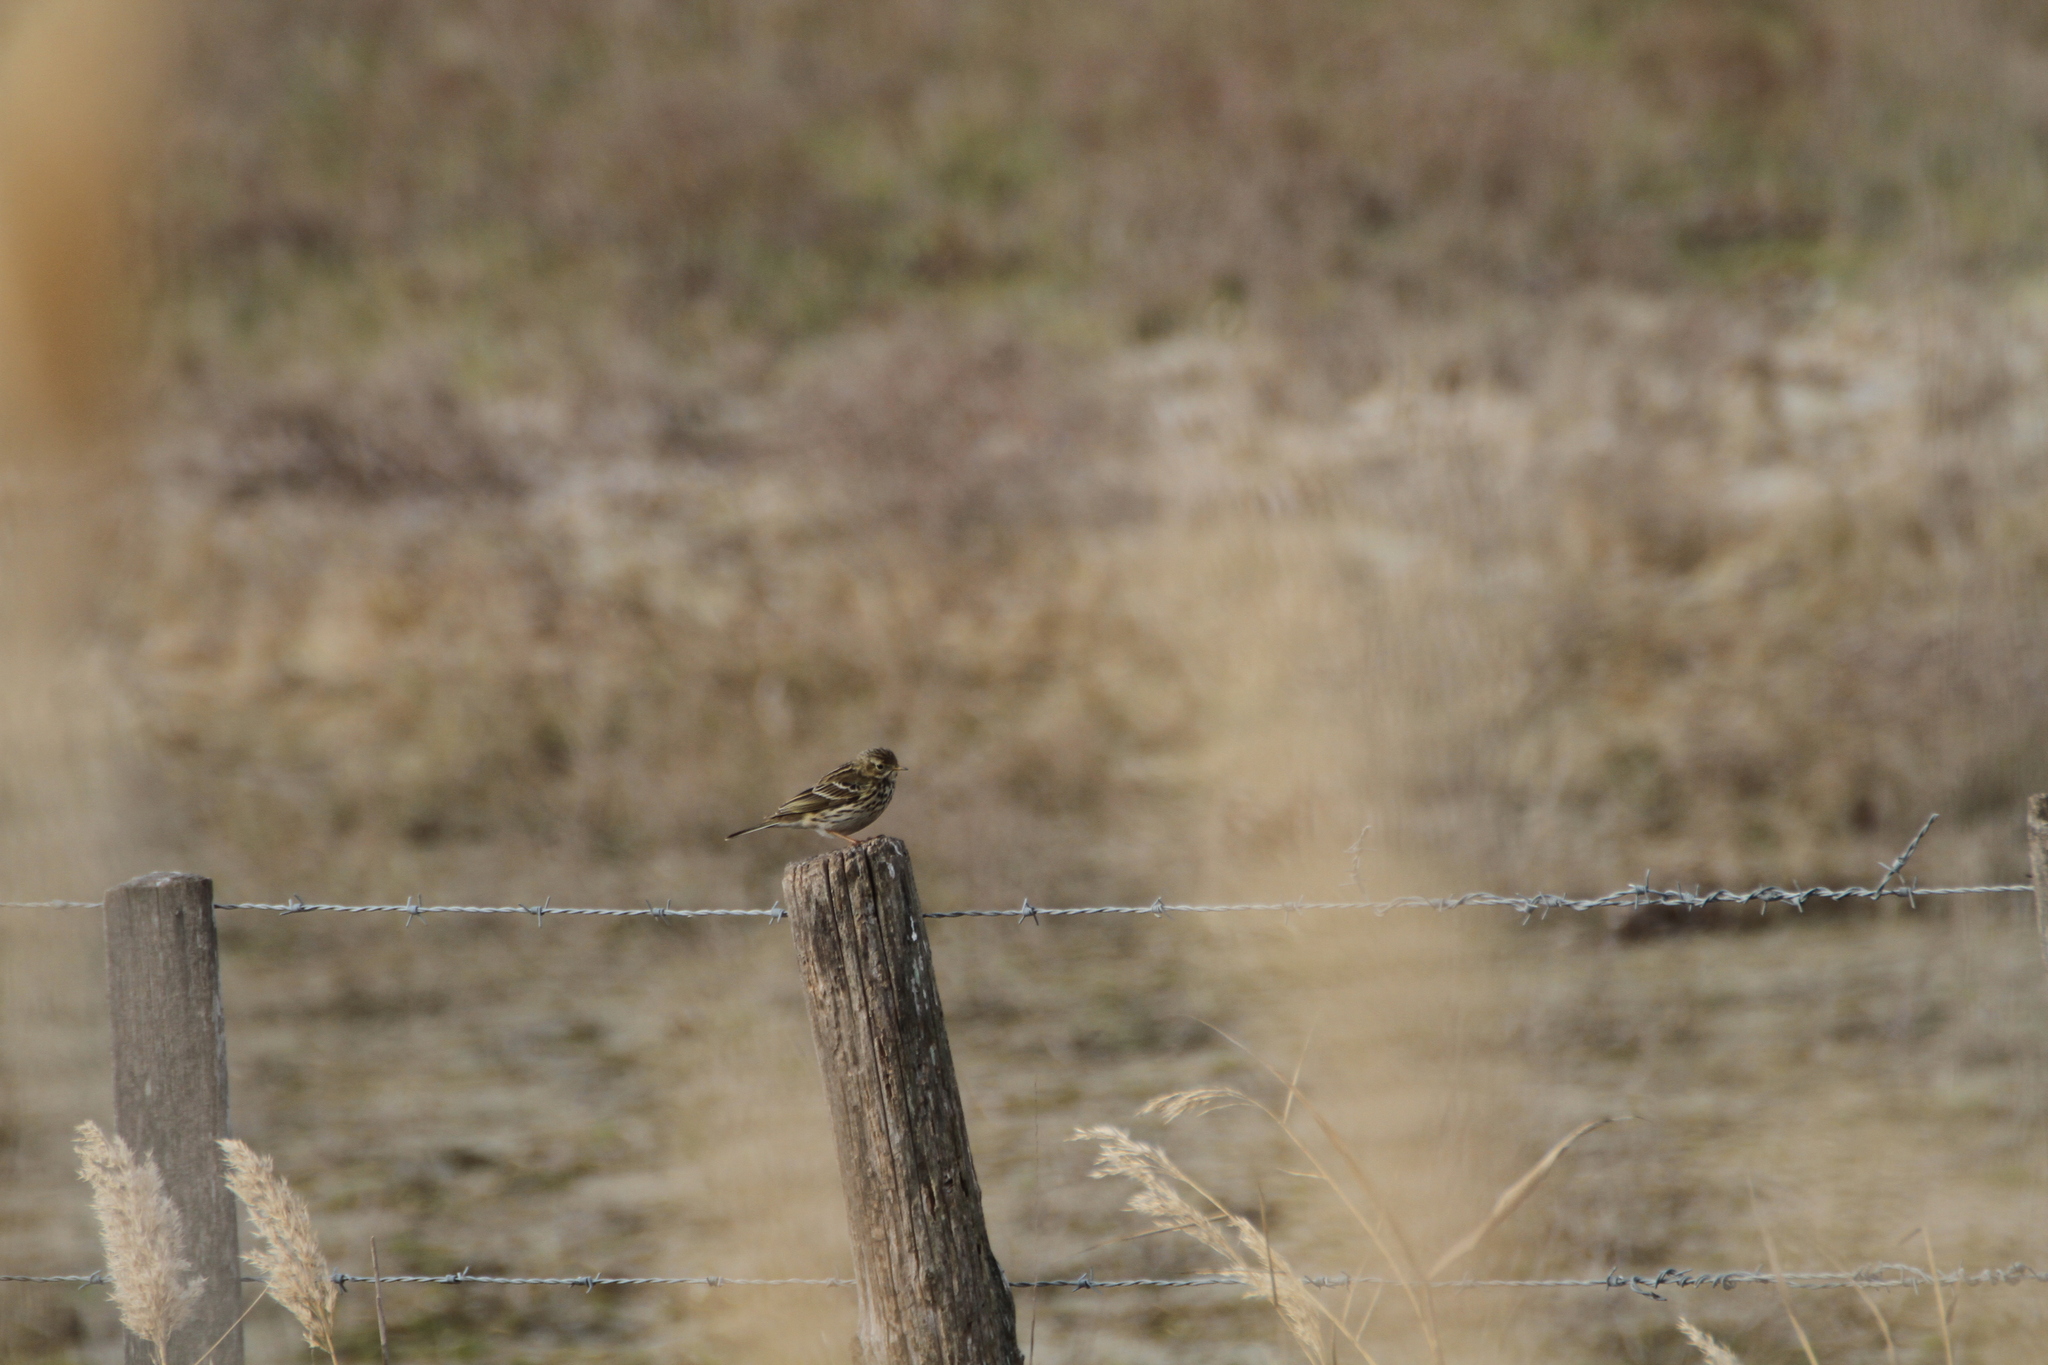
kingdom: Animalia
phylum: Chordata
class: Aves
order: Passeriformes
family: Motacillidae
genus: Anthus
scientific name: Anthus pratensis
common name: Meadow pipit
